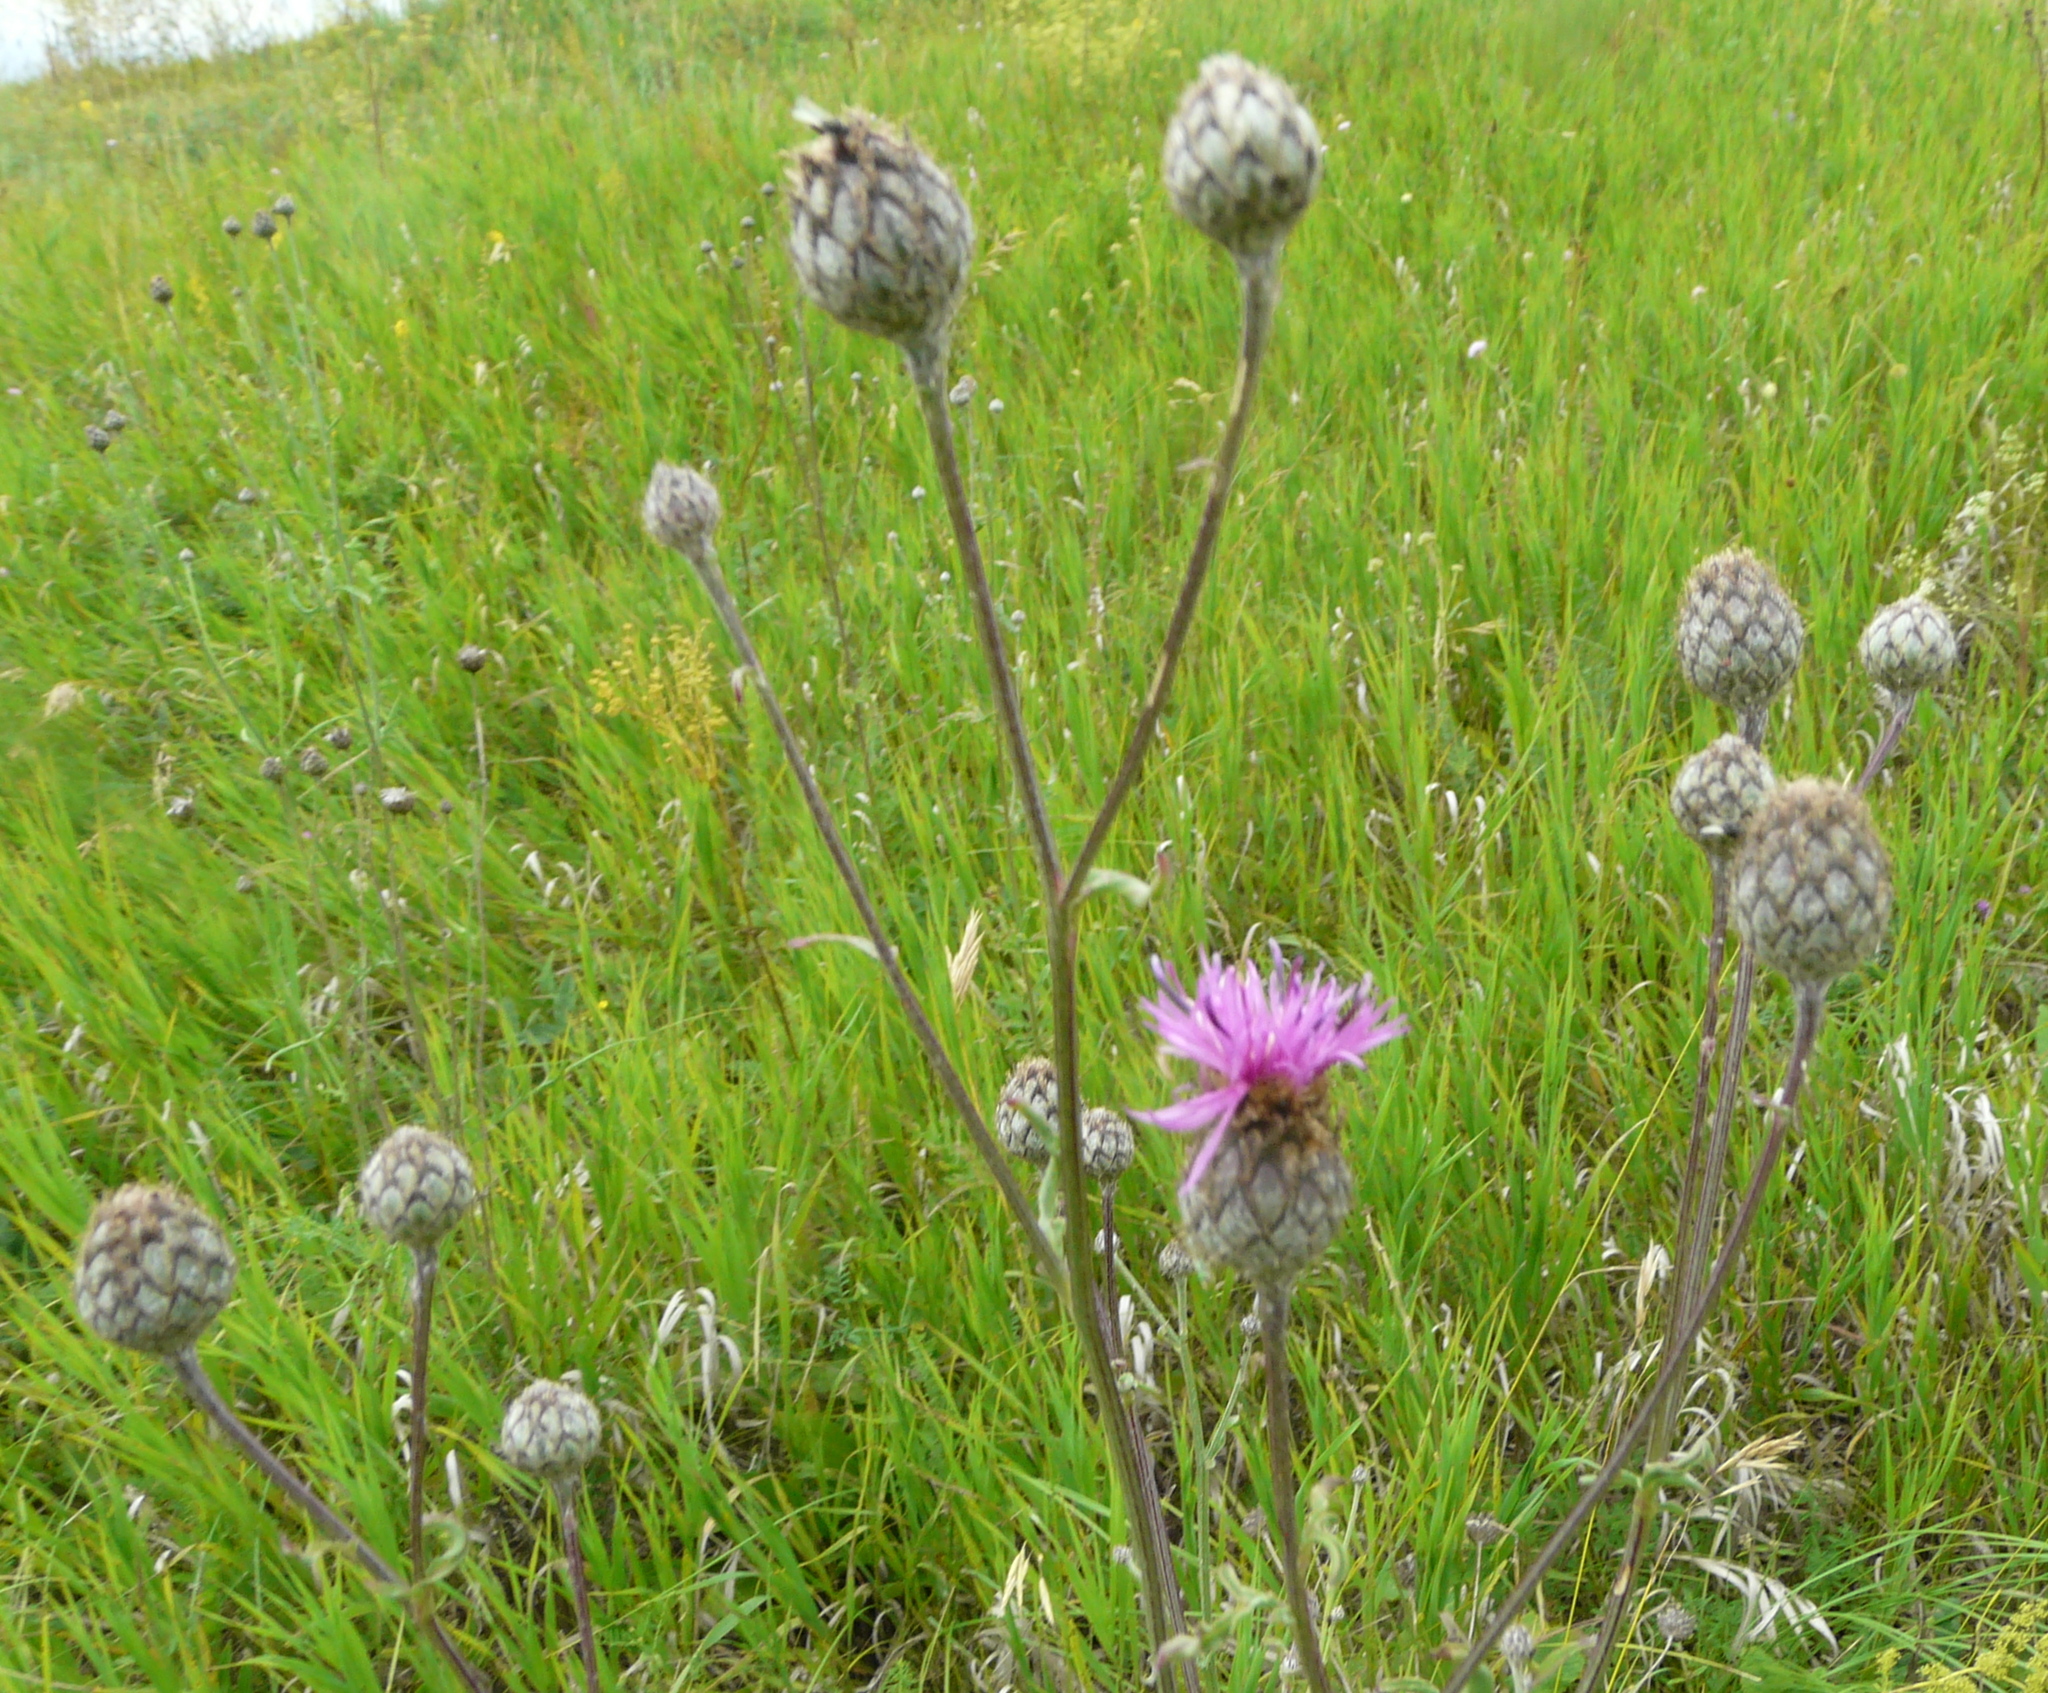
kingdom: Plantae
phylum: Tracheophyta
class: Magnoliopsida
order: Asterales
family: Asteraceae
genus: Centaurea
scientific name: Centaurea scabiosa
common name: Greater knapweed
